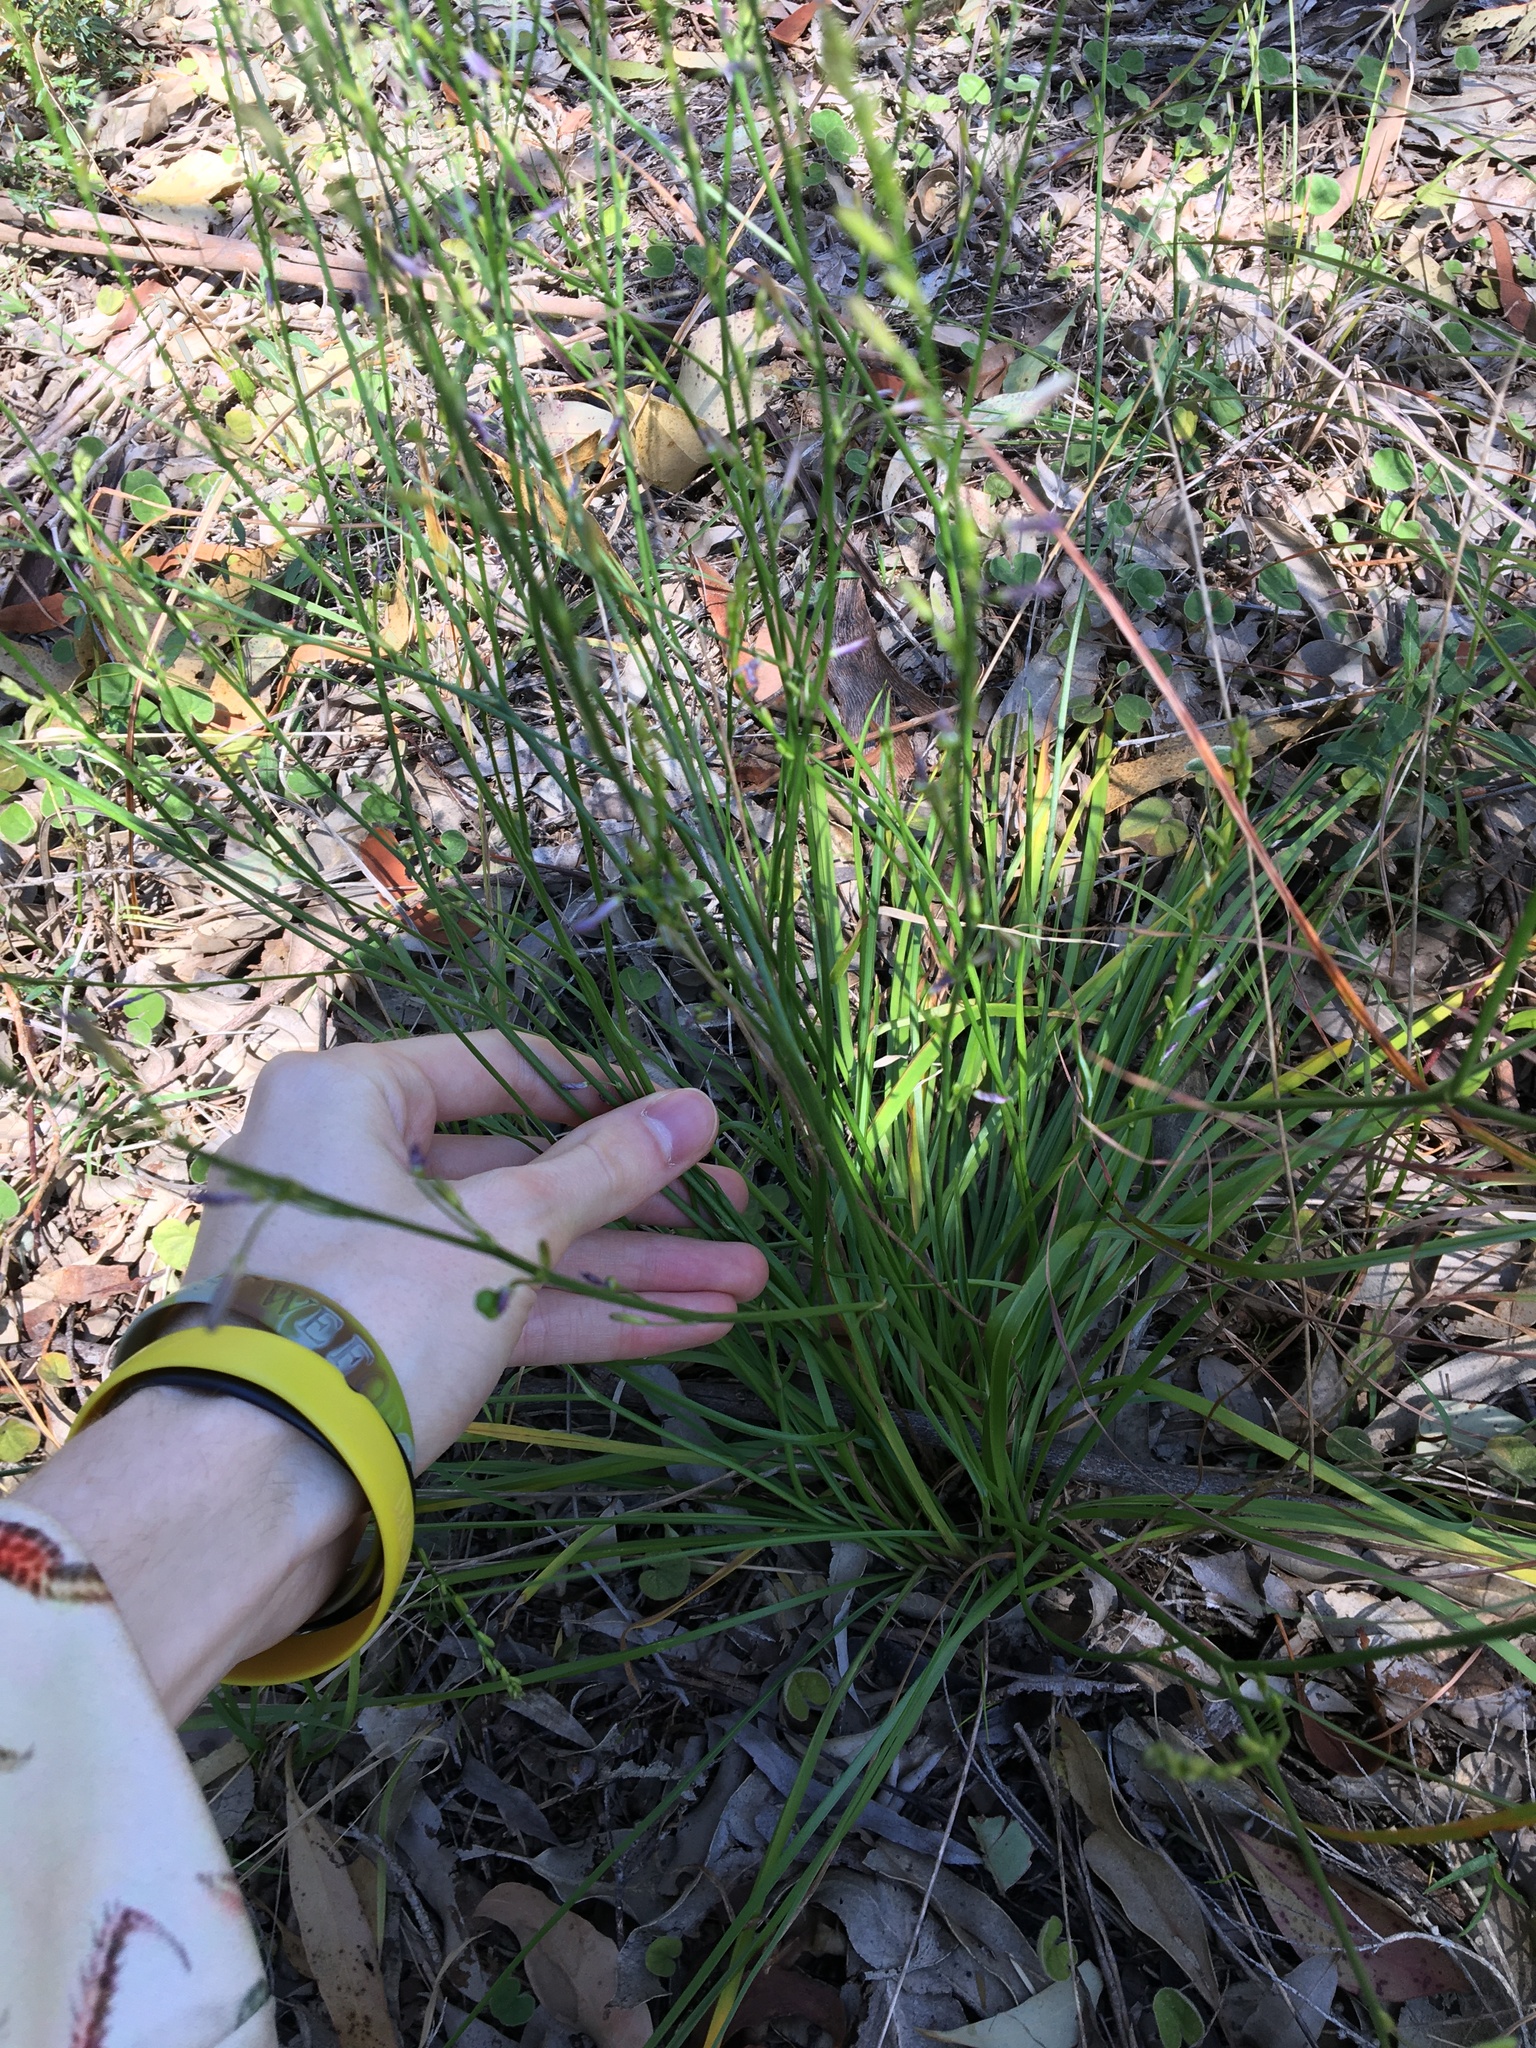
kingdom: Plantae
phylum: Tracheophyta
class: Liliopsida
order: Asparagales
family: Asphodelaceae
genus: Caesia
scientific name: Caesia parviflora
